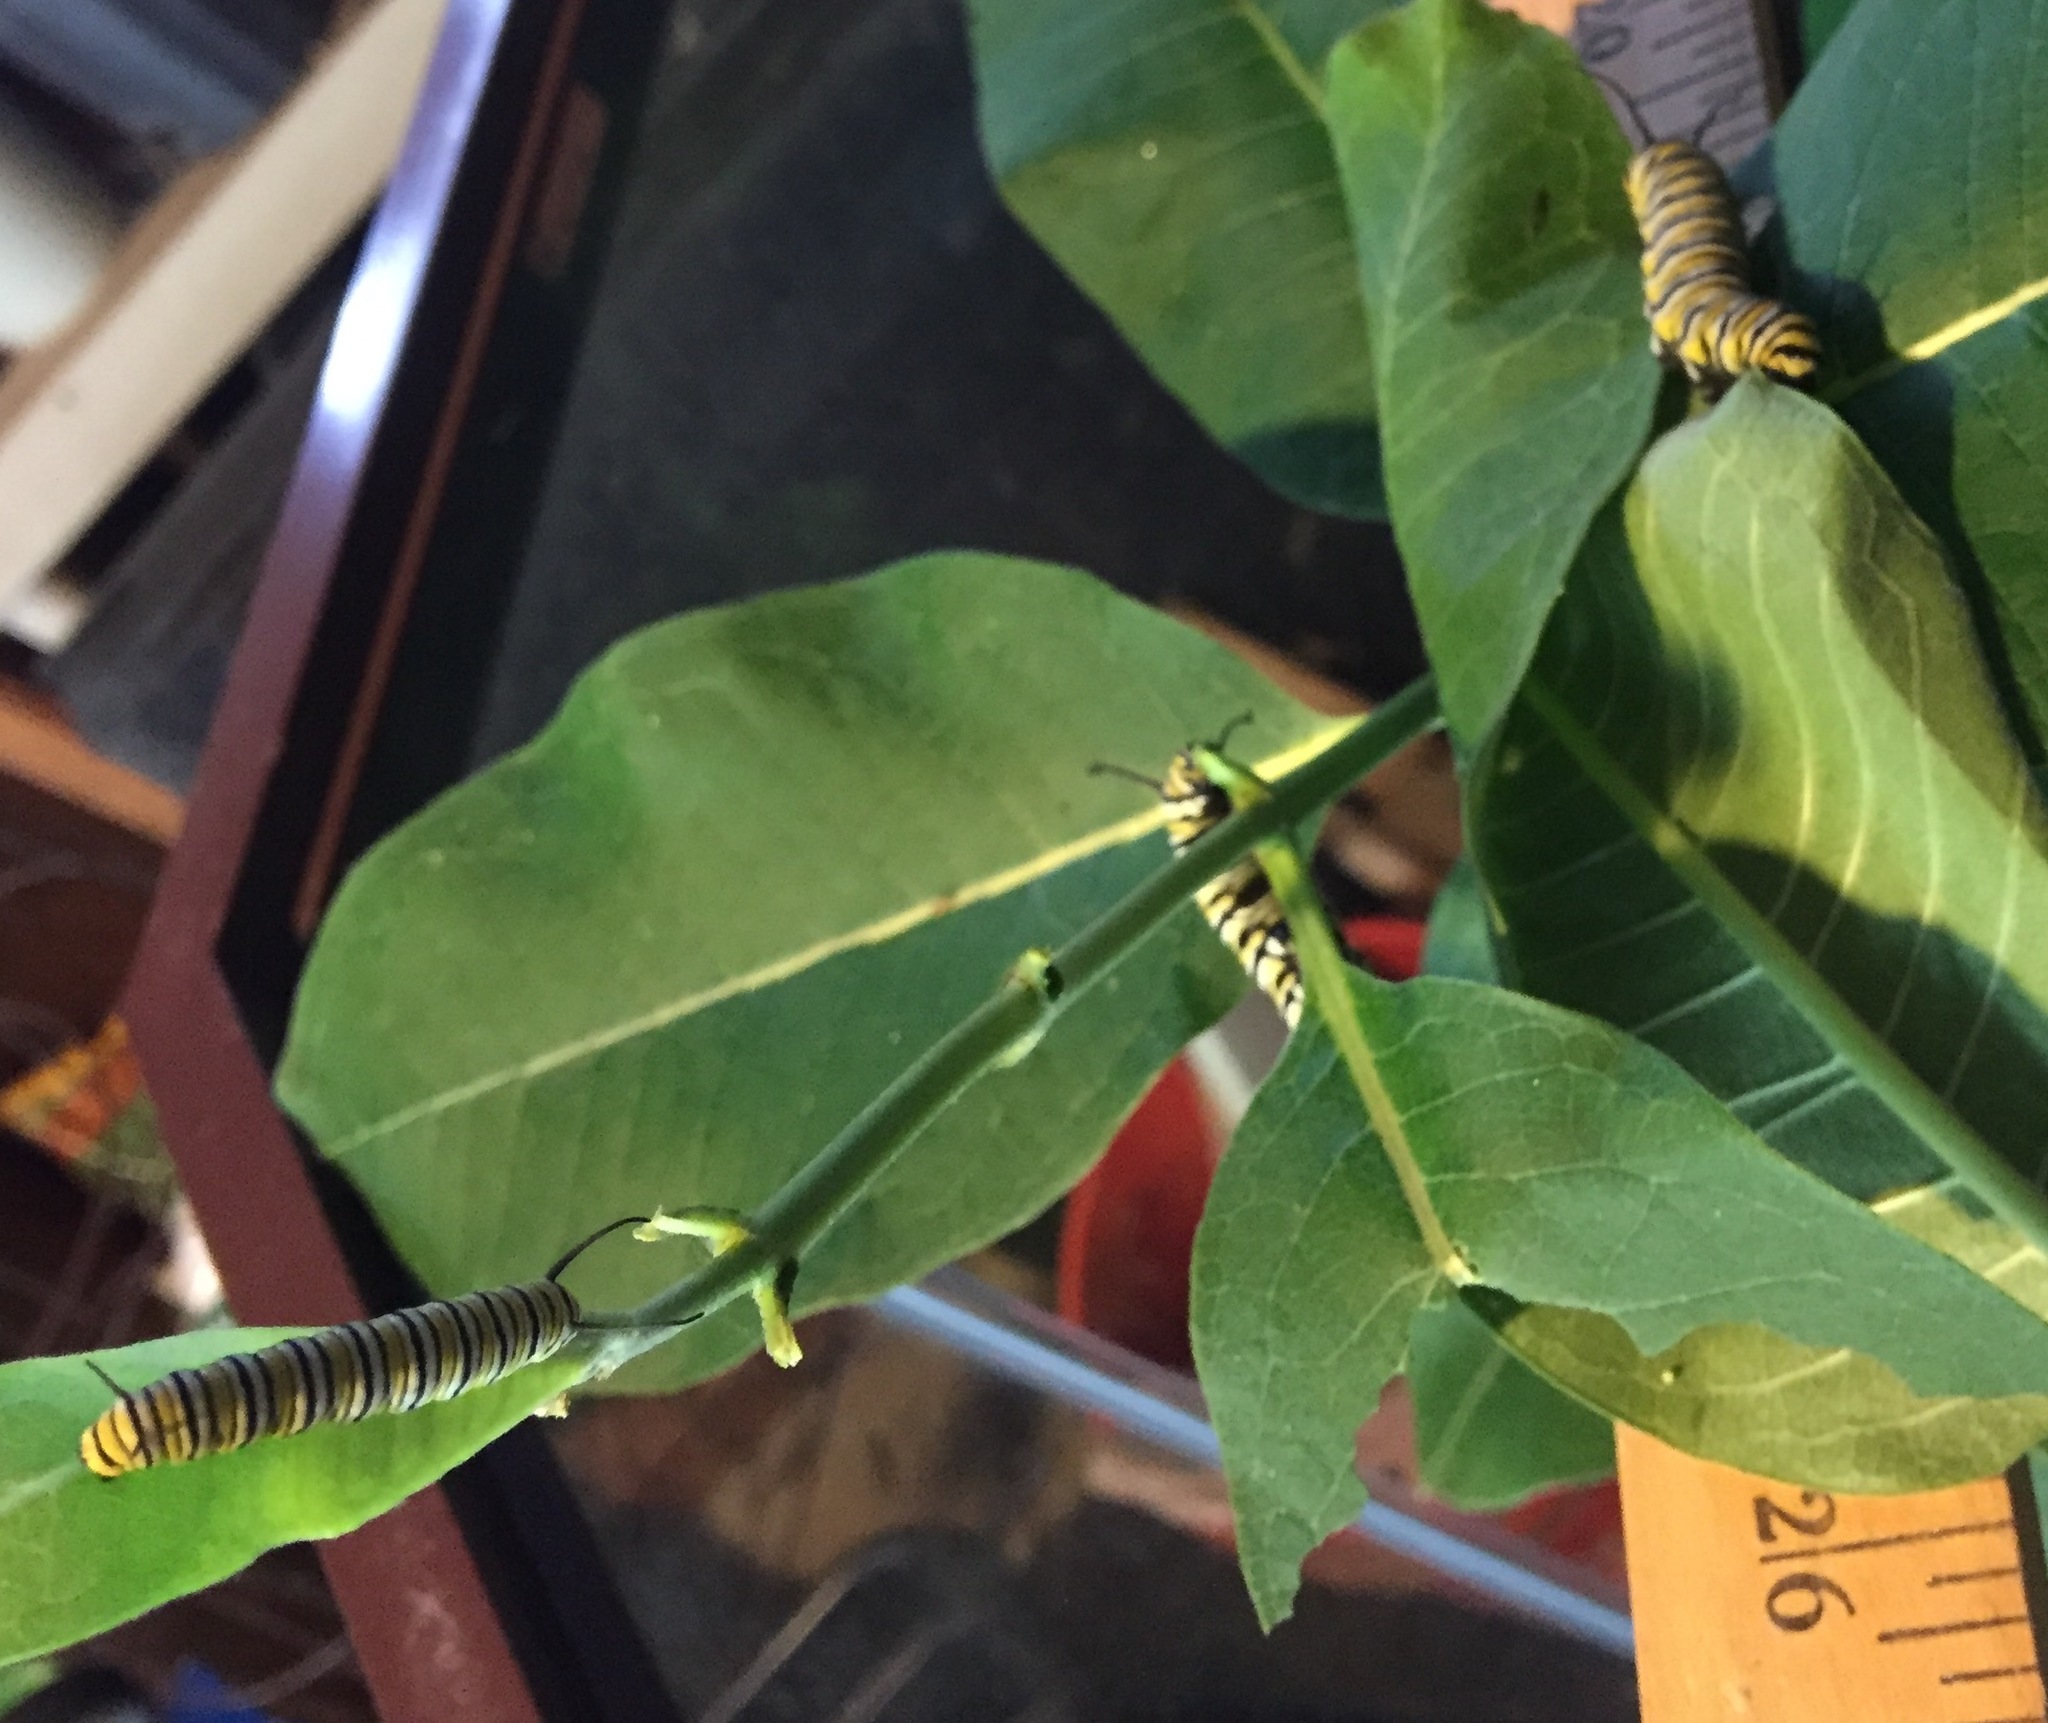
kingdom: Animalia
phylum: Arthropoda
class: Insecta
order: Lepidoptera
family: Nymphalidae
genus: Danaus
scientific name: Danaus plexippus
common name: Monarch
